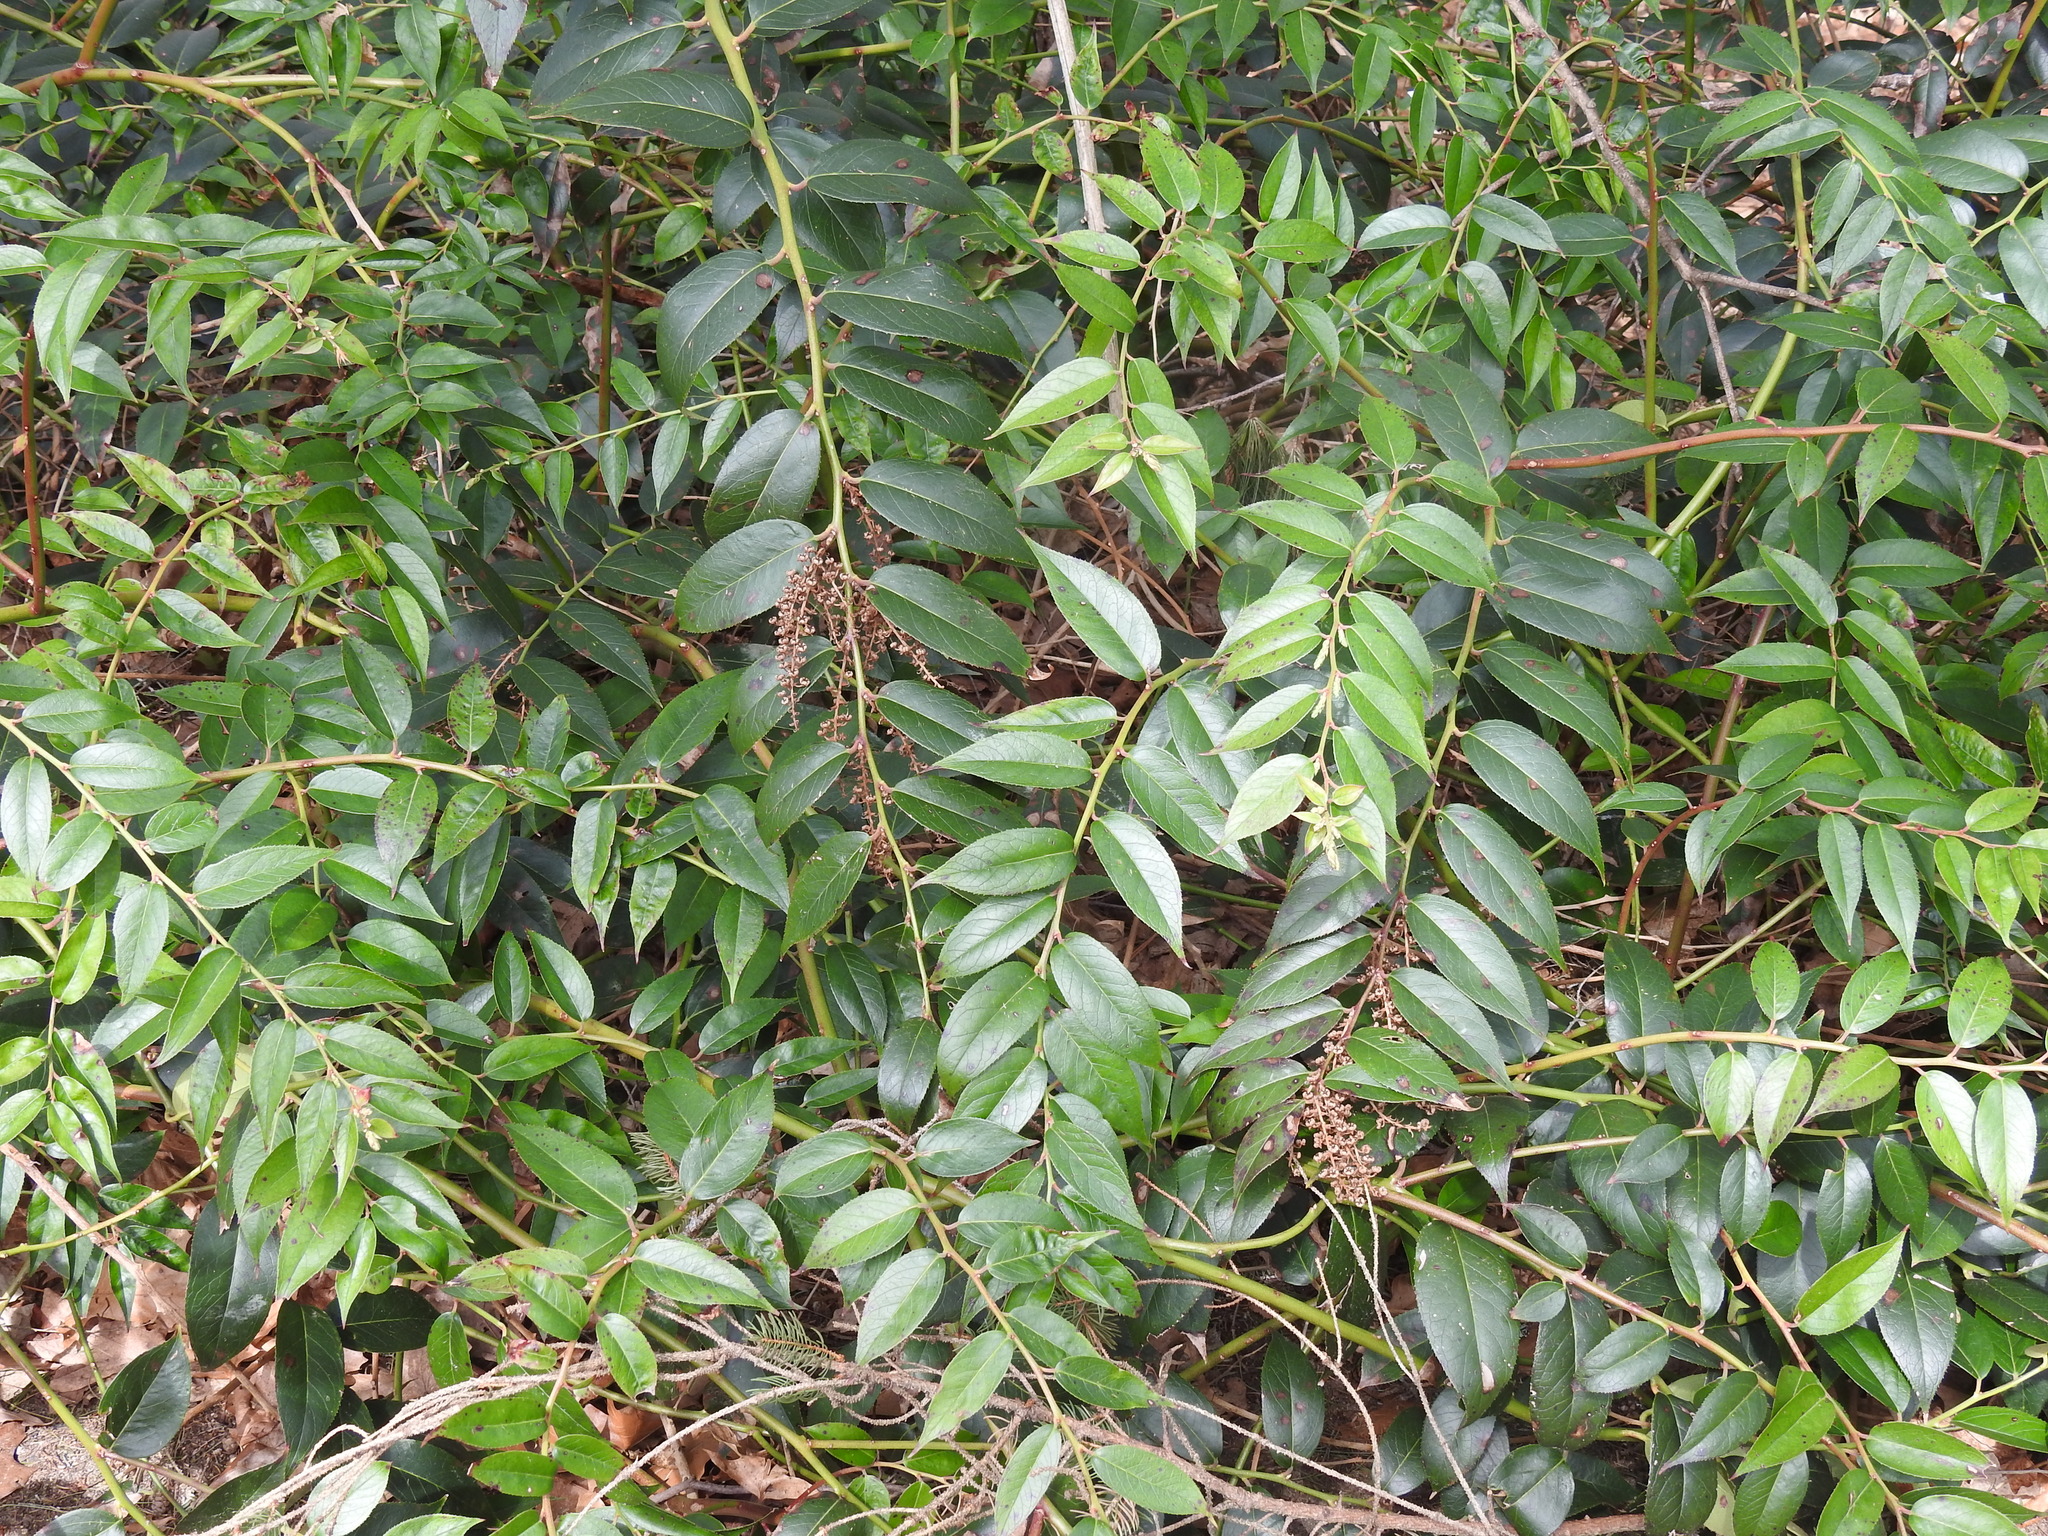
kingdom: Plantae
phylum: Tracheophyta
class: Magnoliopsida
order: Ericales
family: Ericaceae
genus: Leucothoe
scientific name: Leucothoe fontanesiana
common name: Fetterbush
